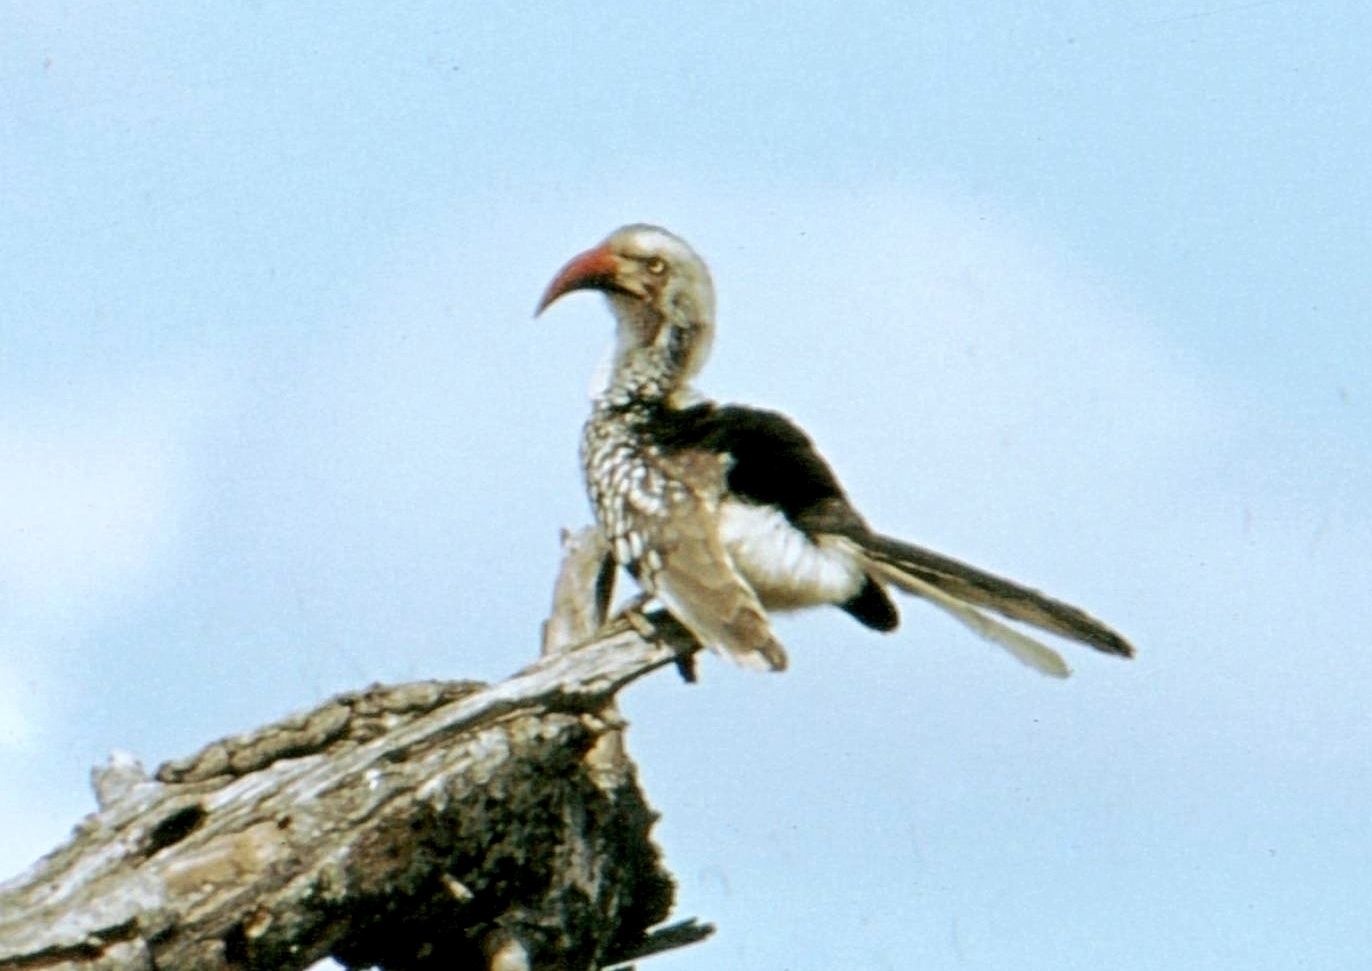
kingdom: Animalia
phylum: Chordata
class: Aves
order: Bucerotiformes
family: Bucerotidae
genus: Tockus
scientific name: Tockus rufirostris
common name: Southern red-billed hornbill
